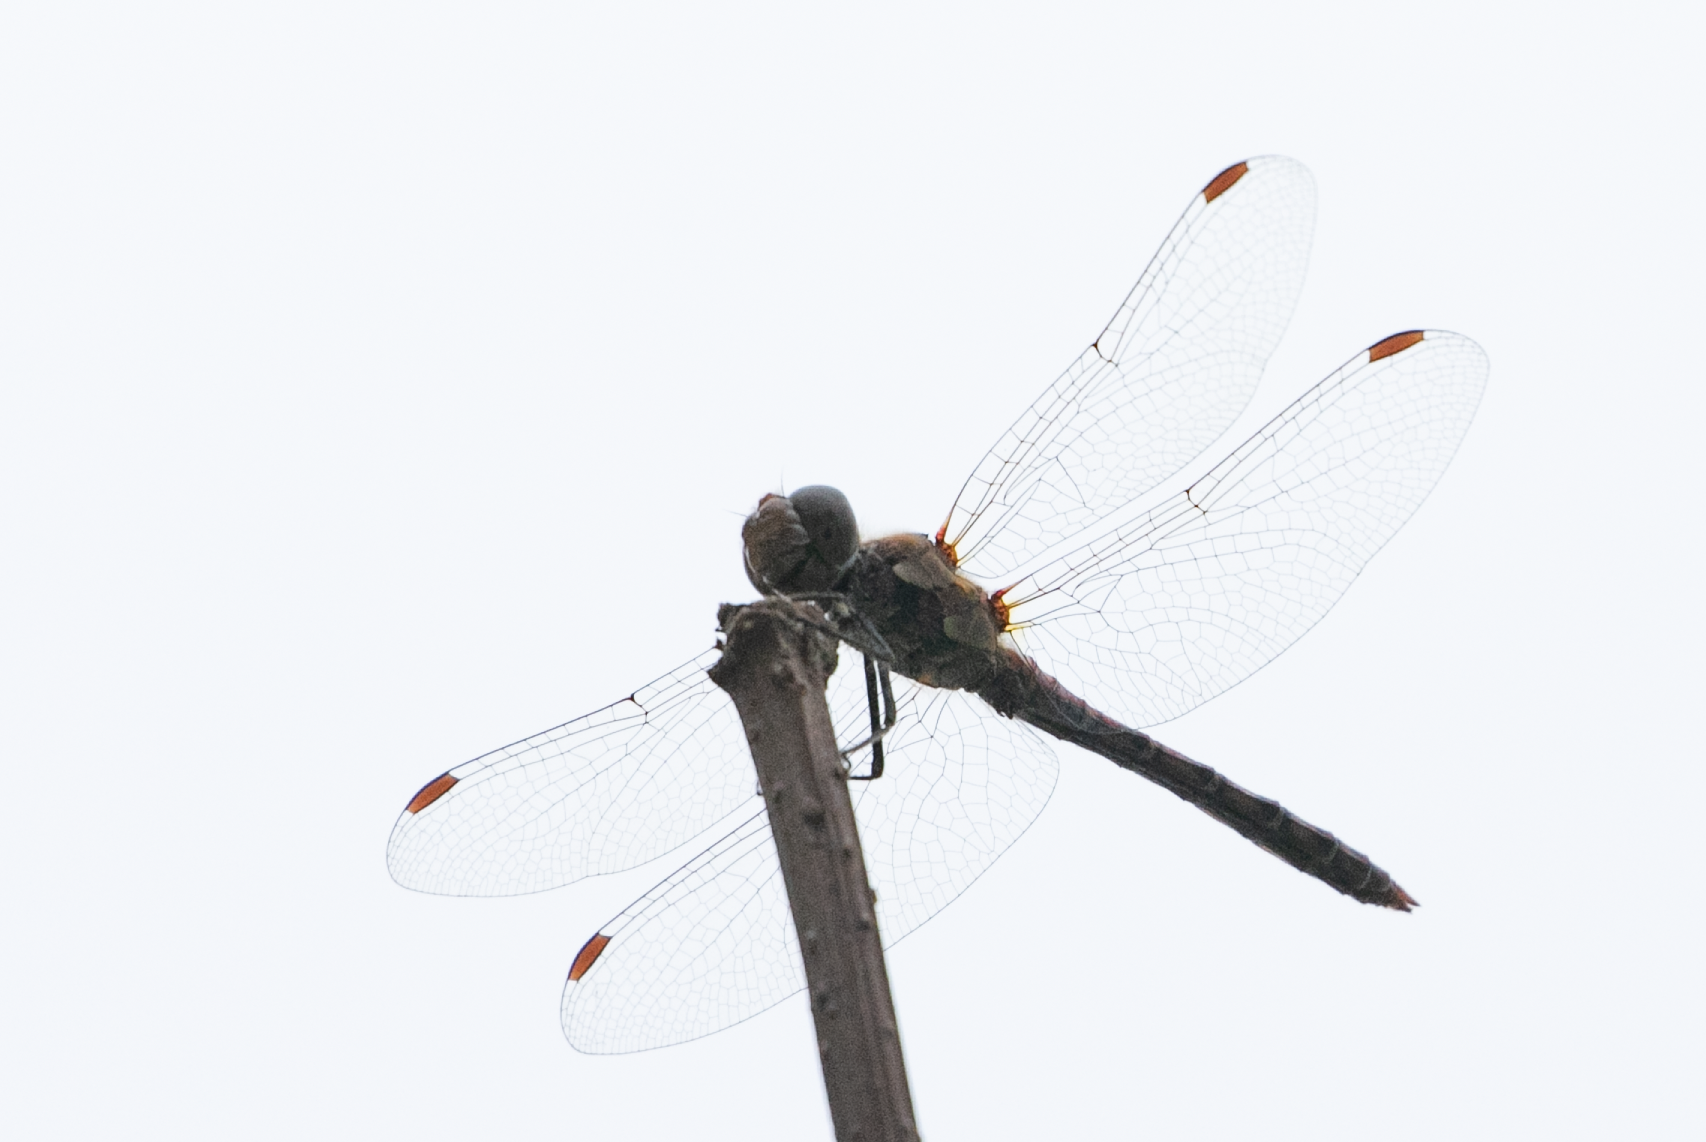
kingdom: Animalia
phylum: Arthropoda
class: Insecta
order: Odonata
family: Libellulidae
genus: Sympetrum
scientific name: Sympetrum striolatum
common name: Common darter
